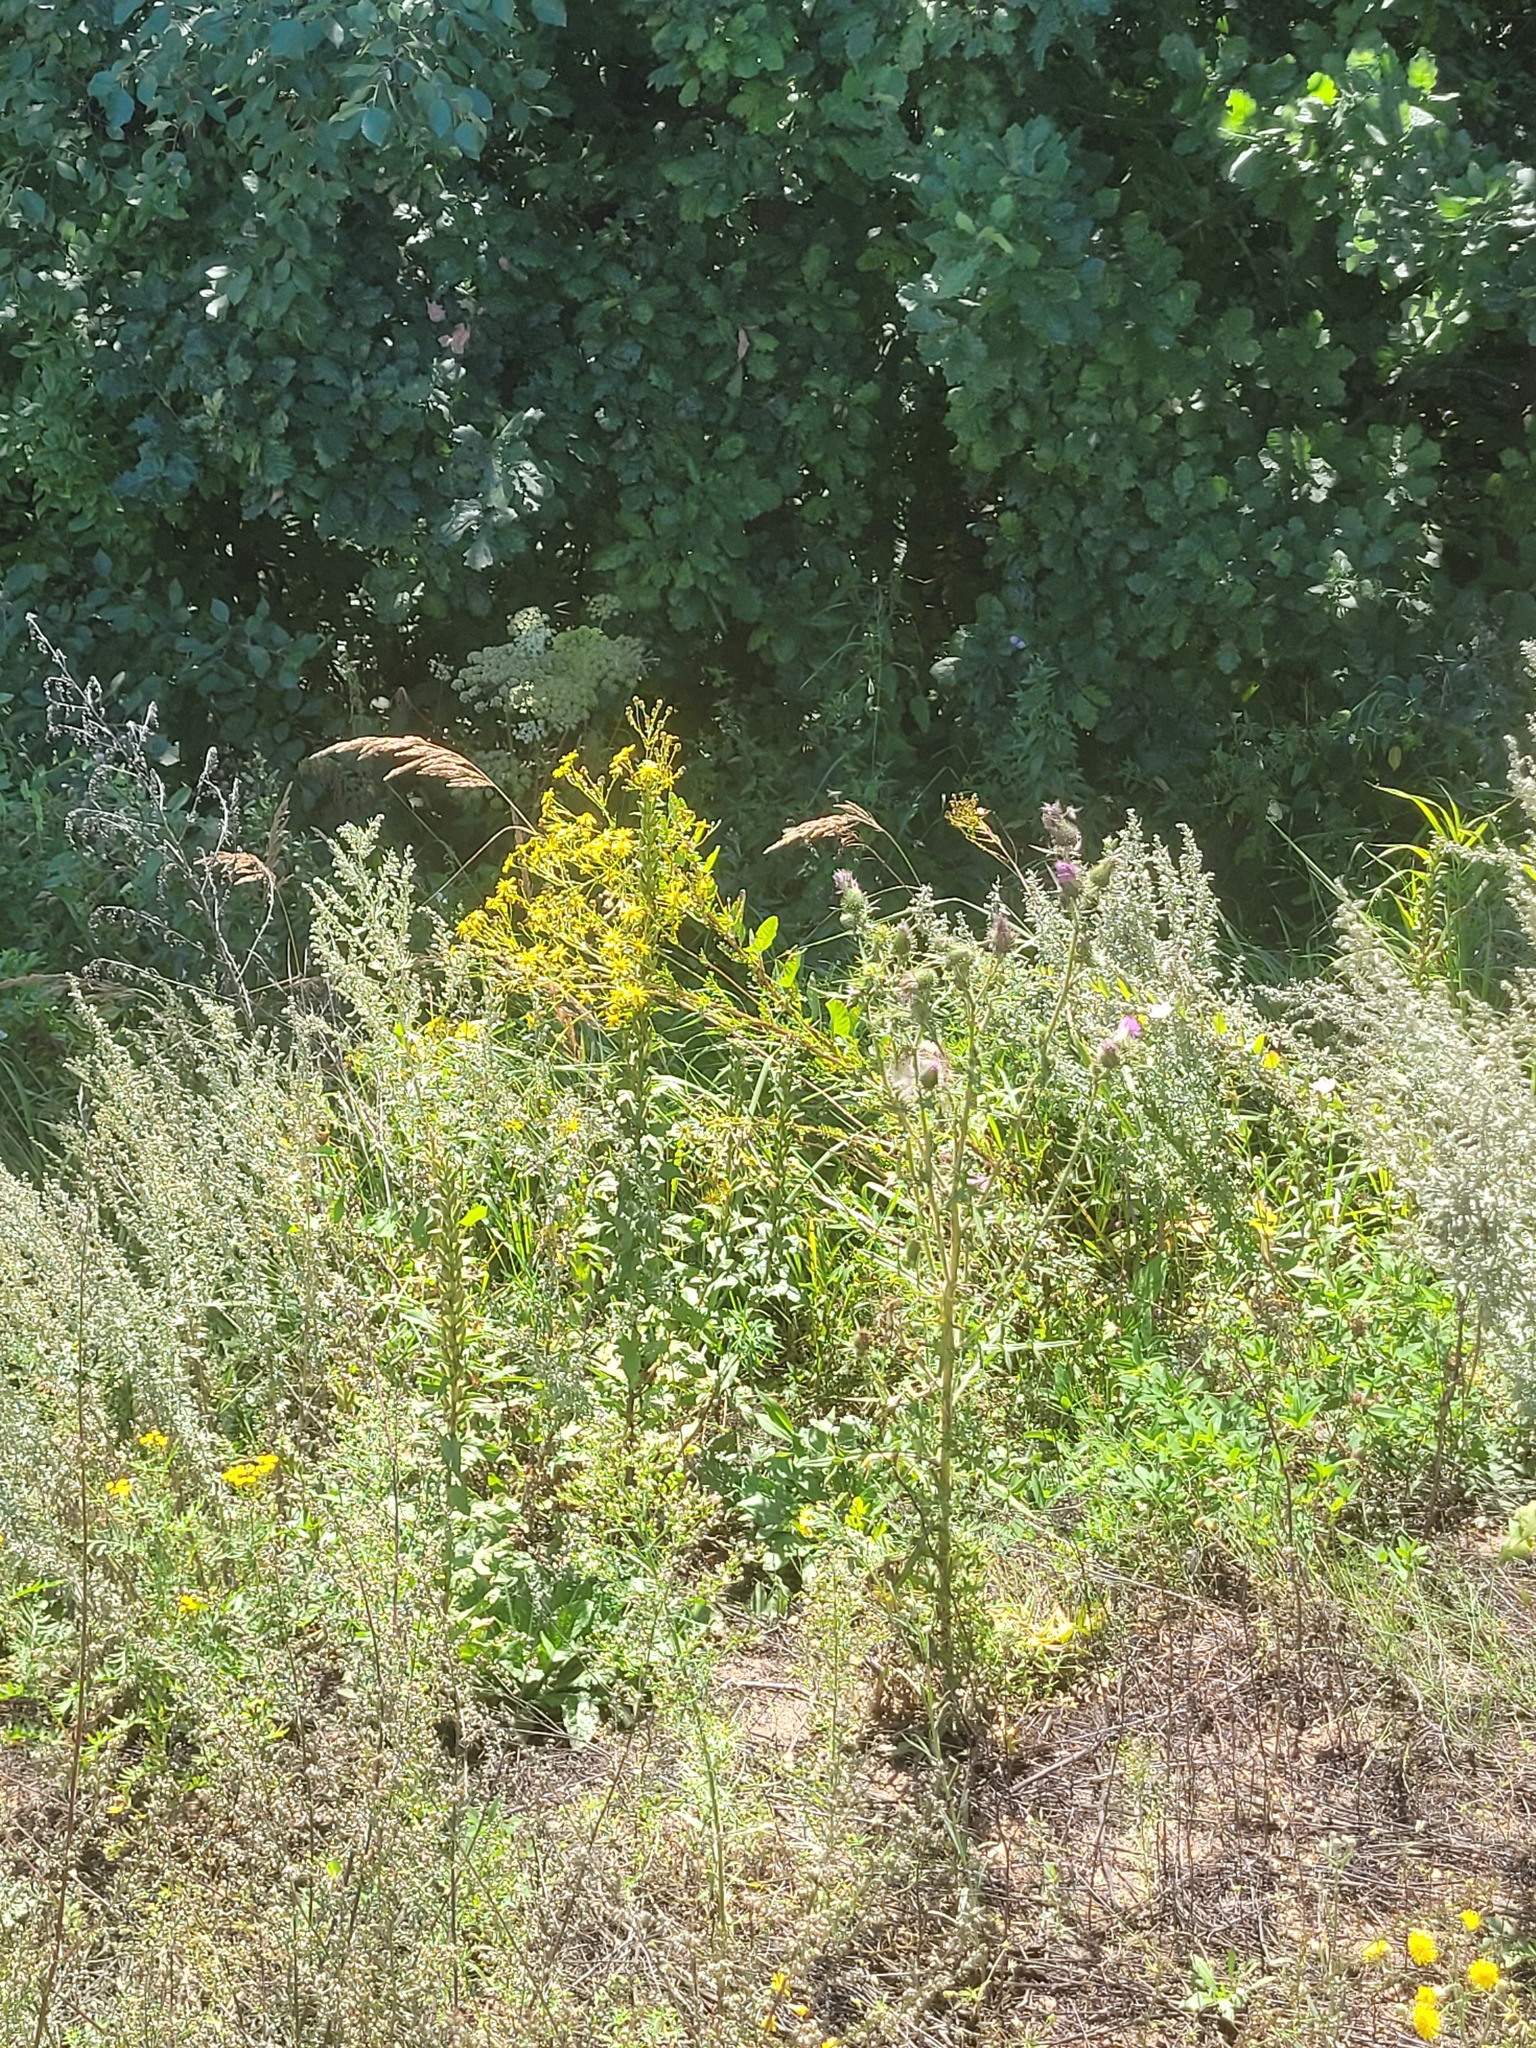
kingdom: Plantae
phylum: Tracheophyta
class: Magnoliopsida
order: Asterales
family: Asteraceae
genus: Jacobaea
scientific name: Jacobaea vulgaris
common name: Stinking willie
